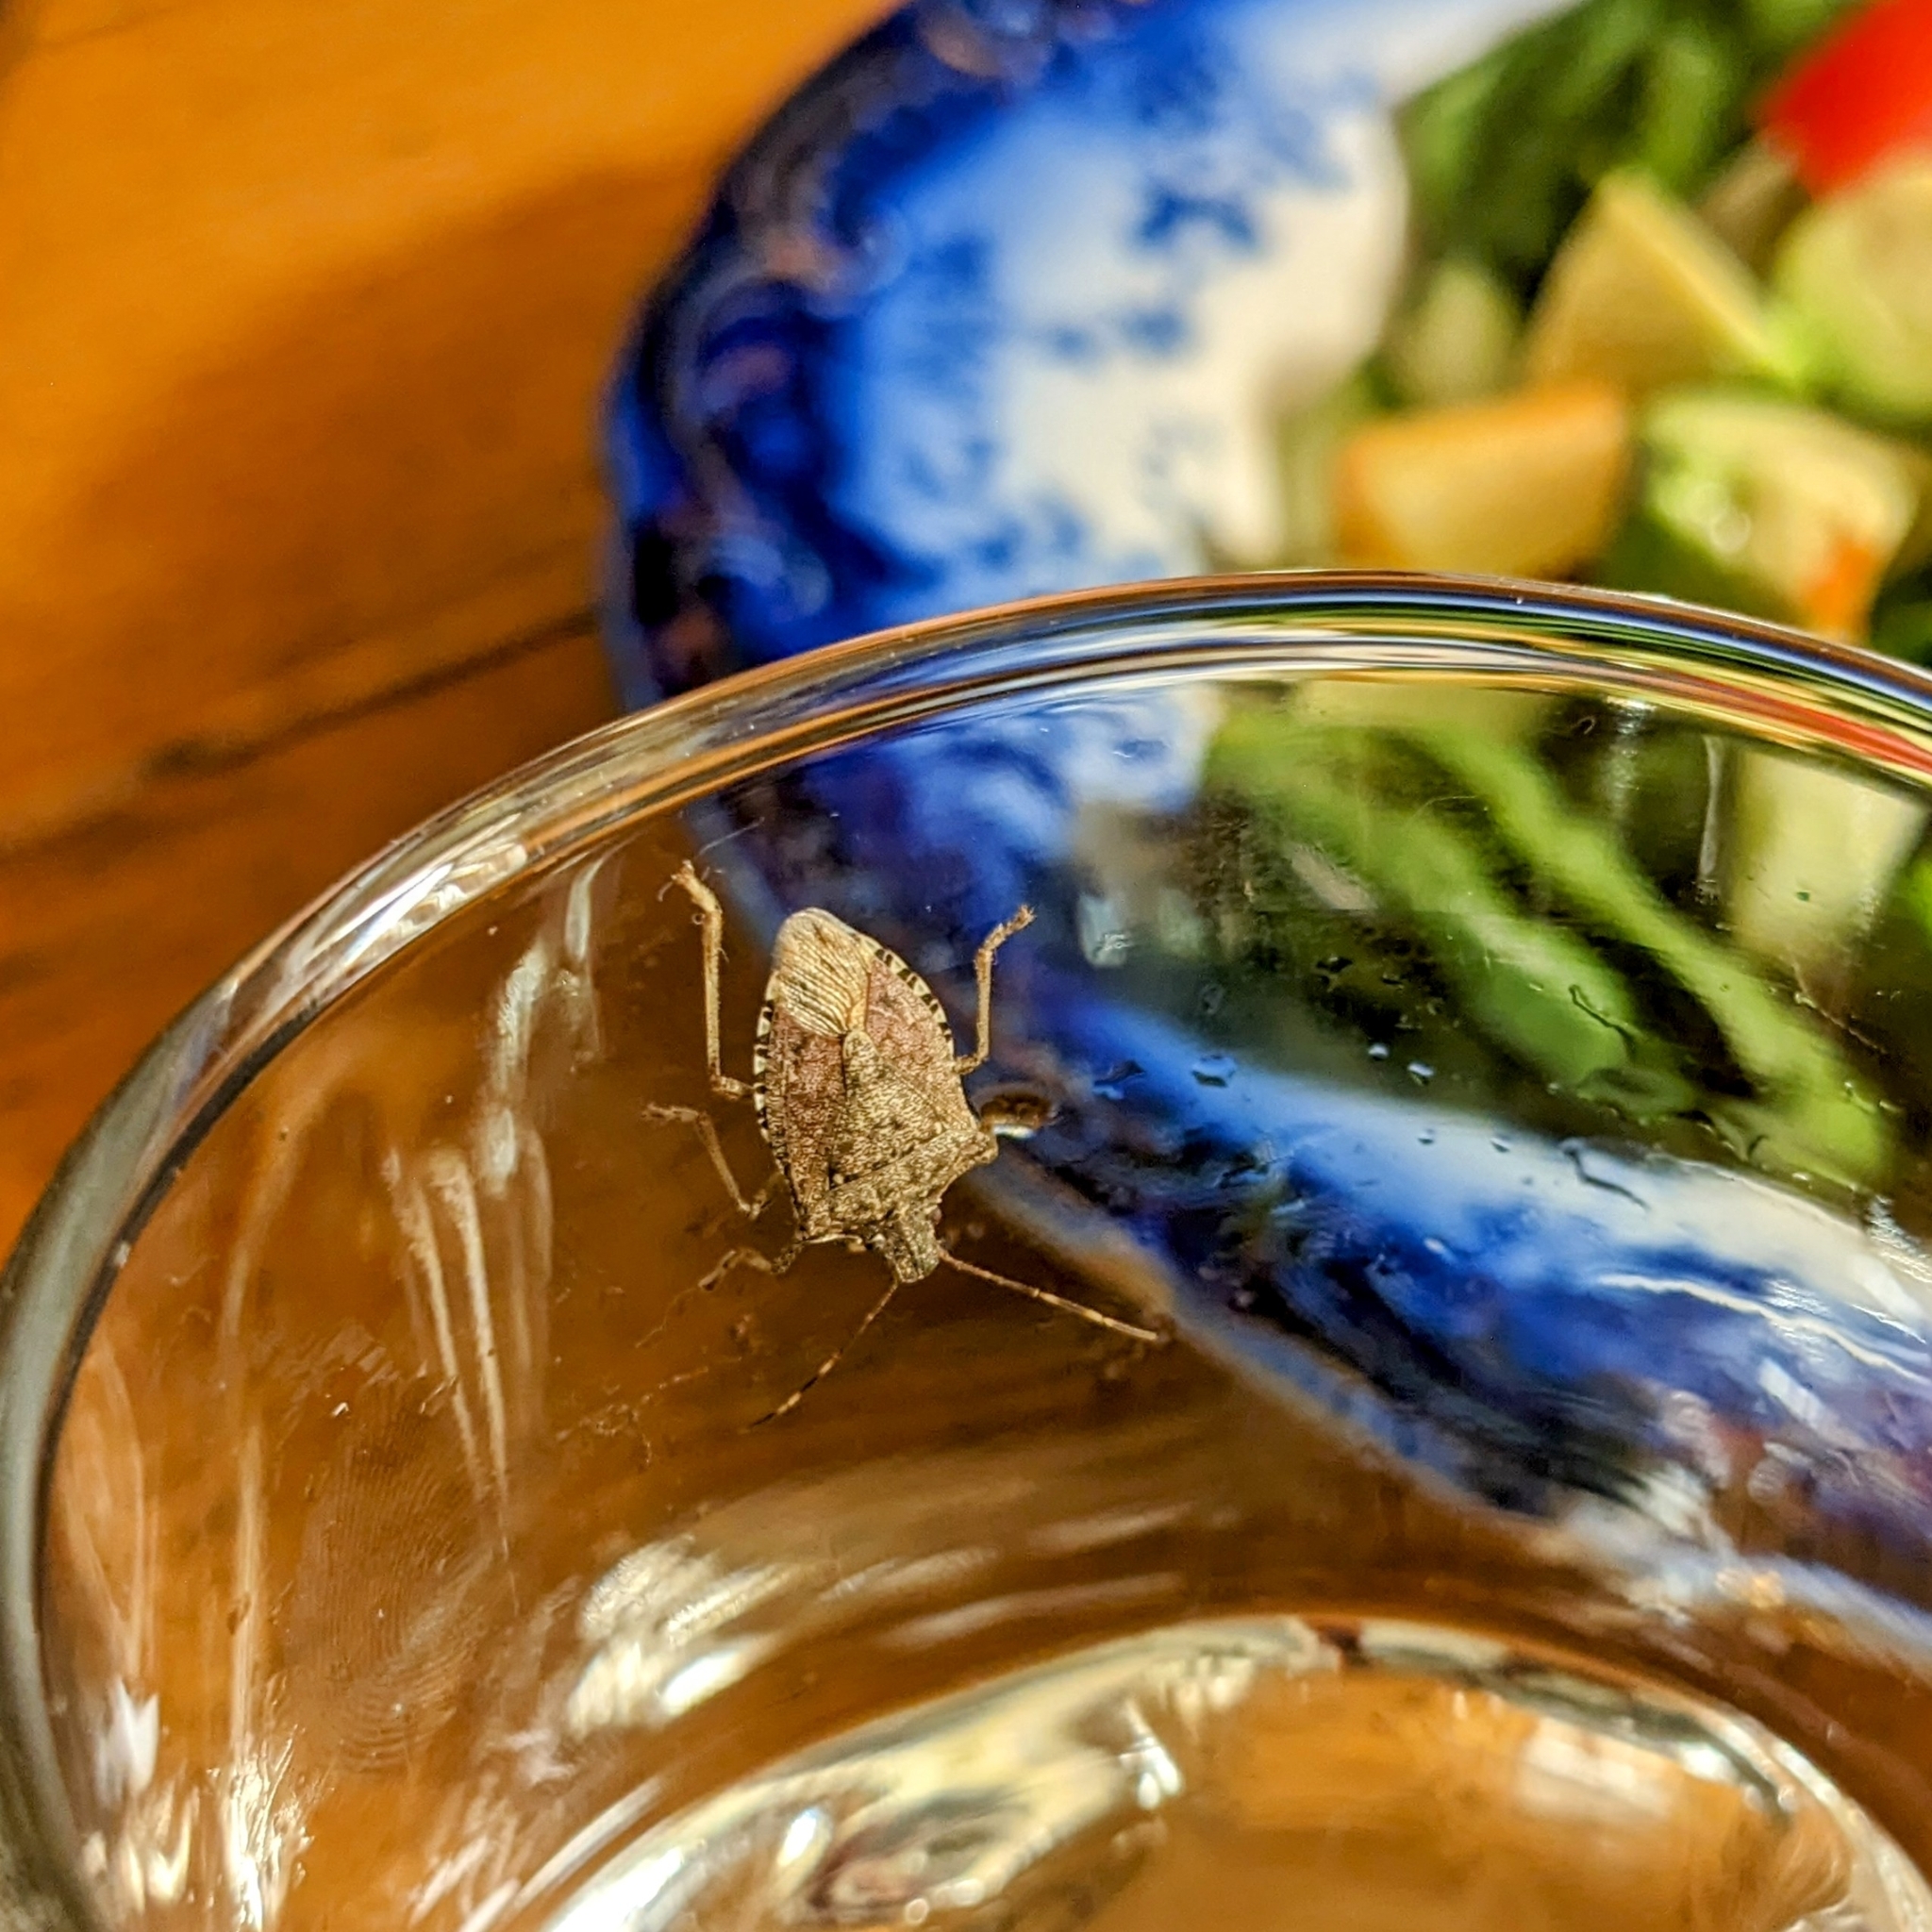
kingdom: Animalia
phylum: Arthropoda
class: Insecta
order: Hemiptera
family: Pentatomidae
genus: Halyomorpha
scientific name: Halyomorpha halys
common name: Brown marmorated stink bug
